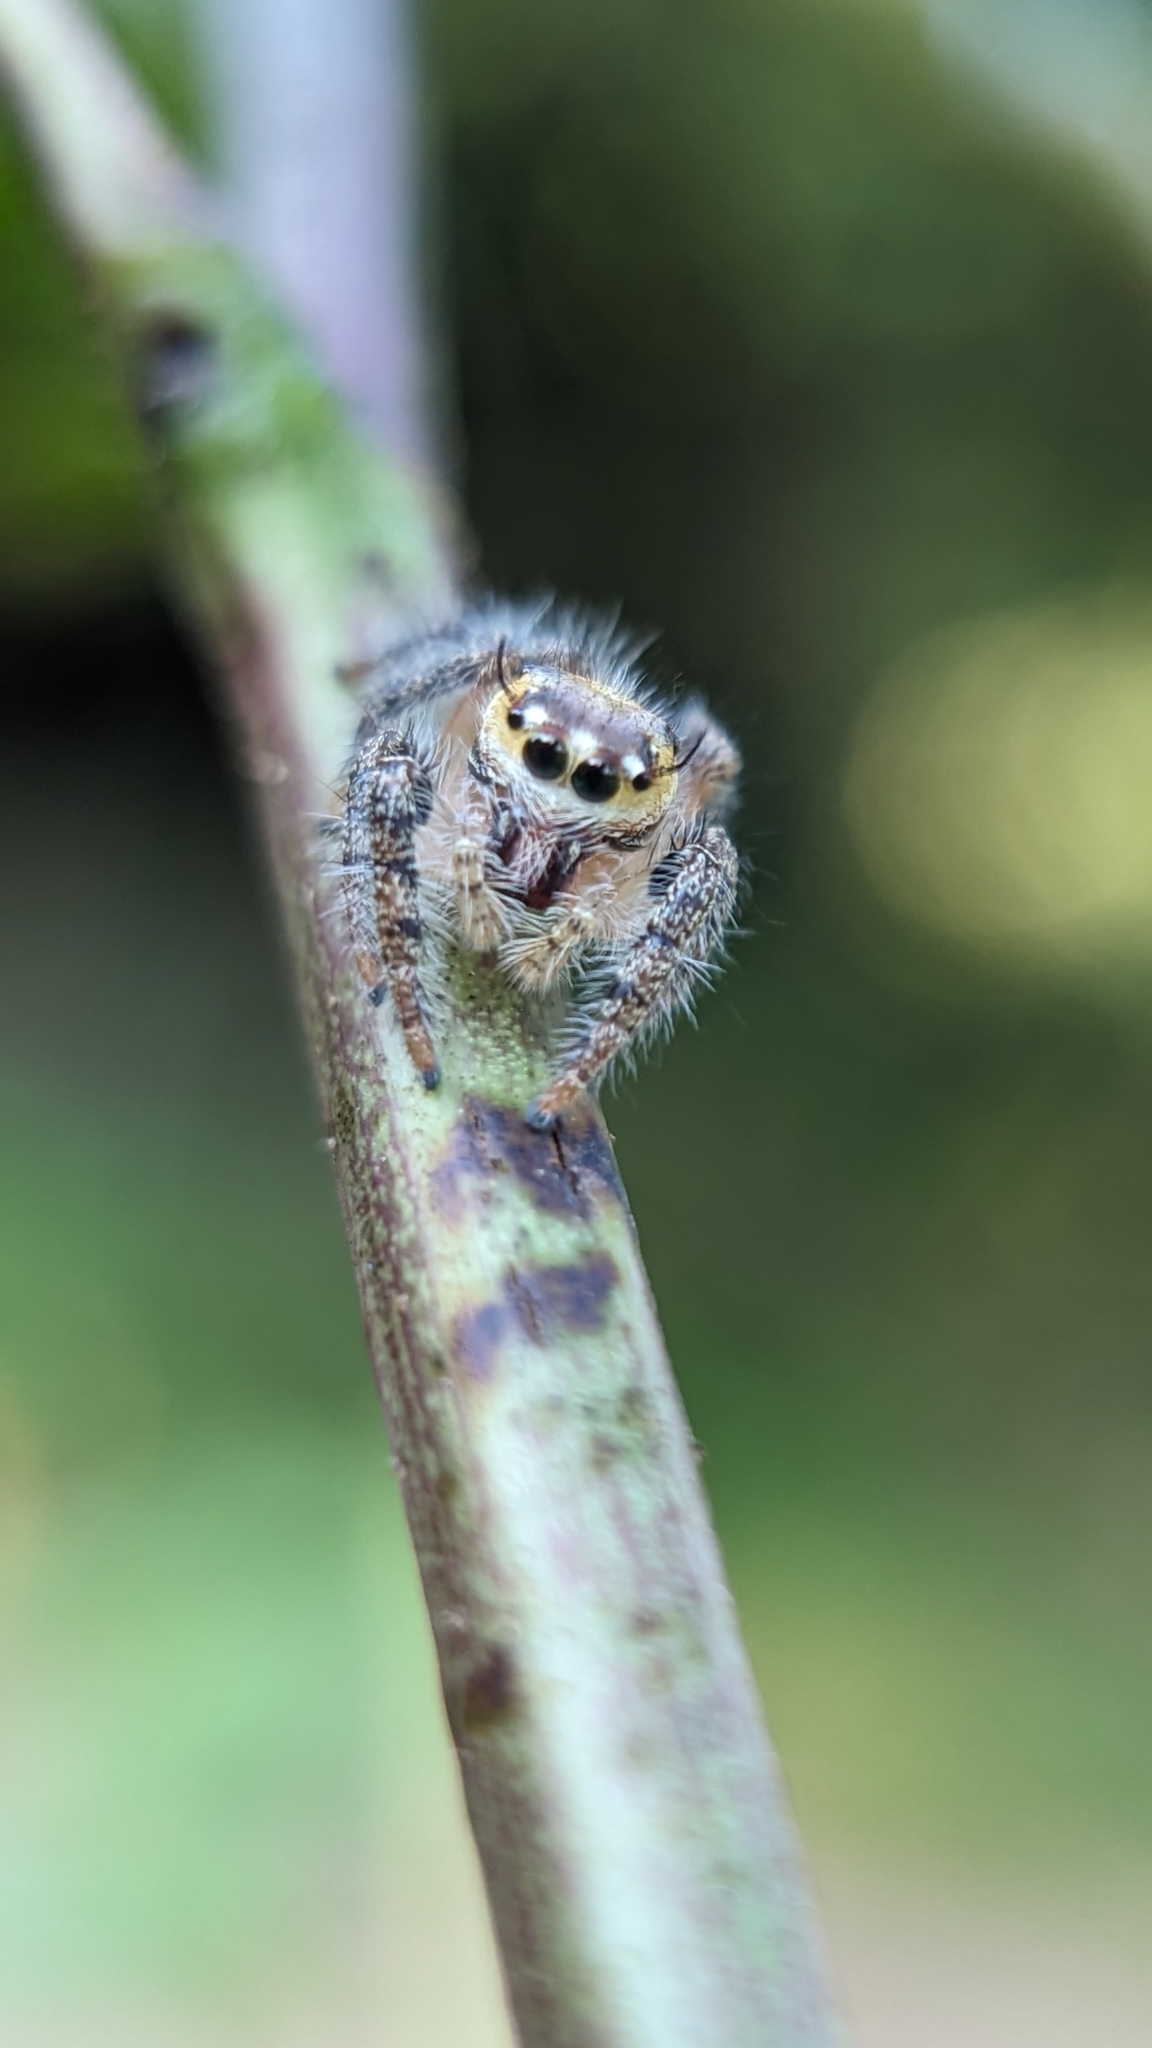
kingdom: Animalia
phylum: Arthropoda
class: Arachnida
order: Araneae
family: Salticidae
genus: Hyllus
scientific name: Hyllus semicupreus
